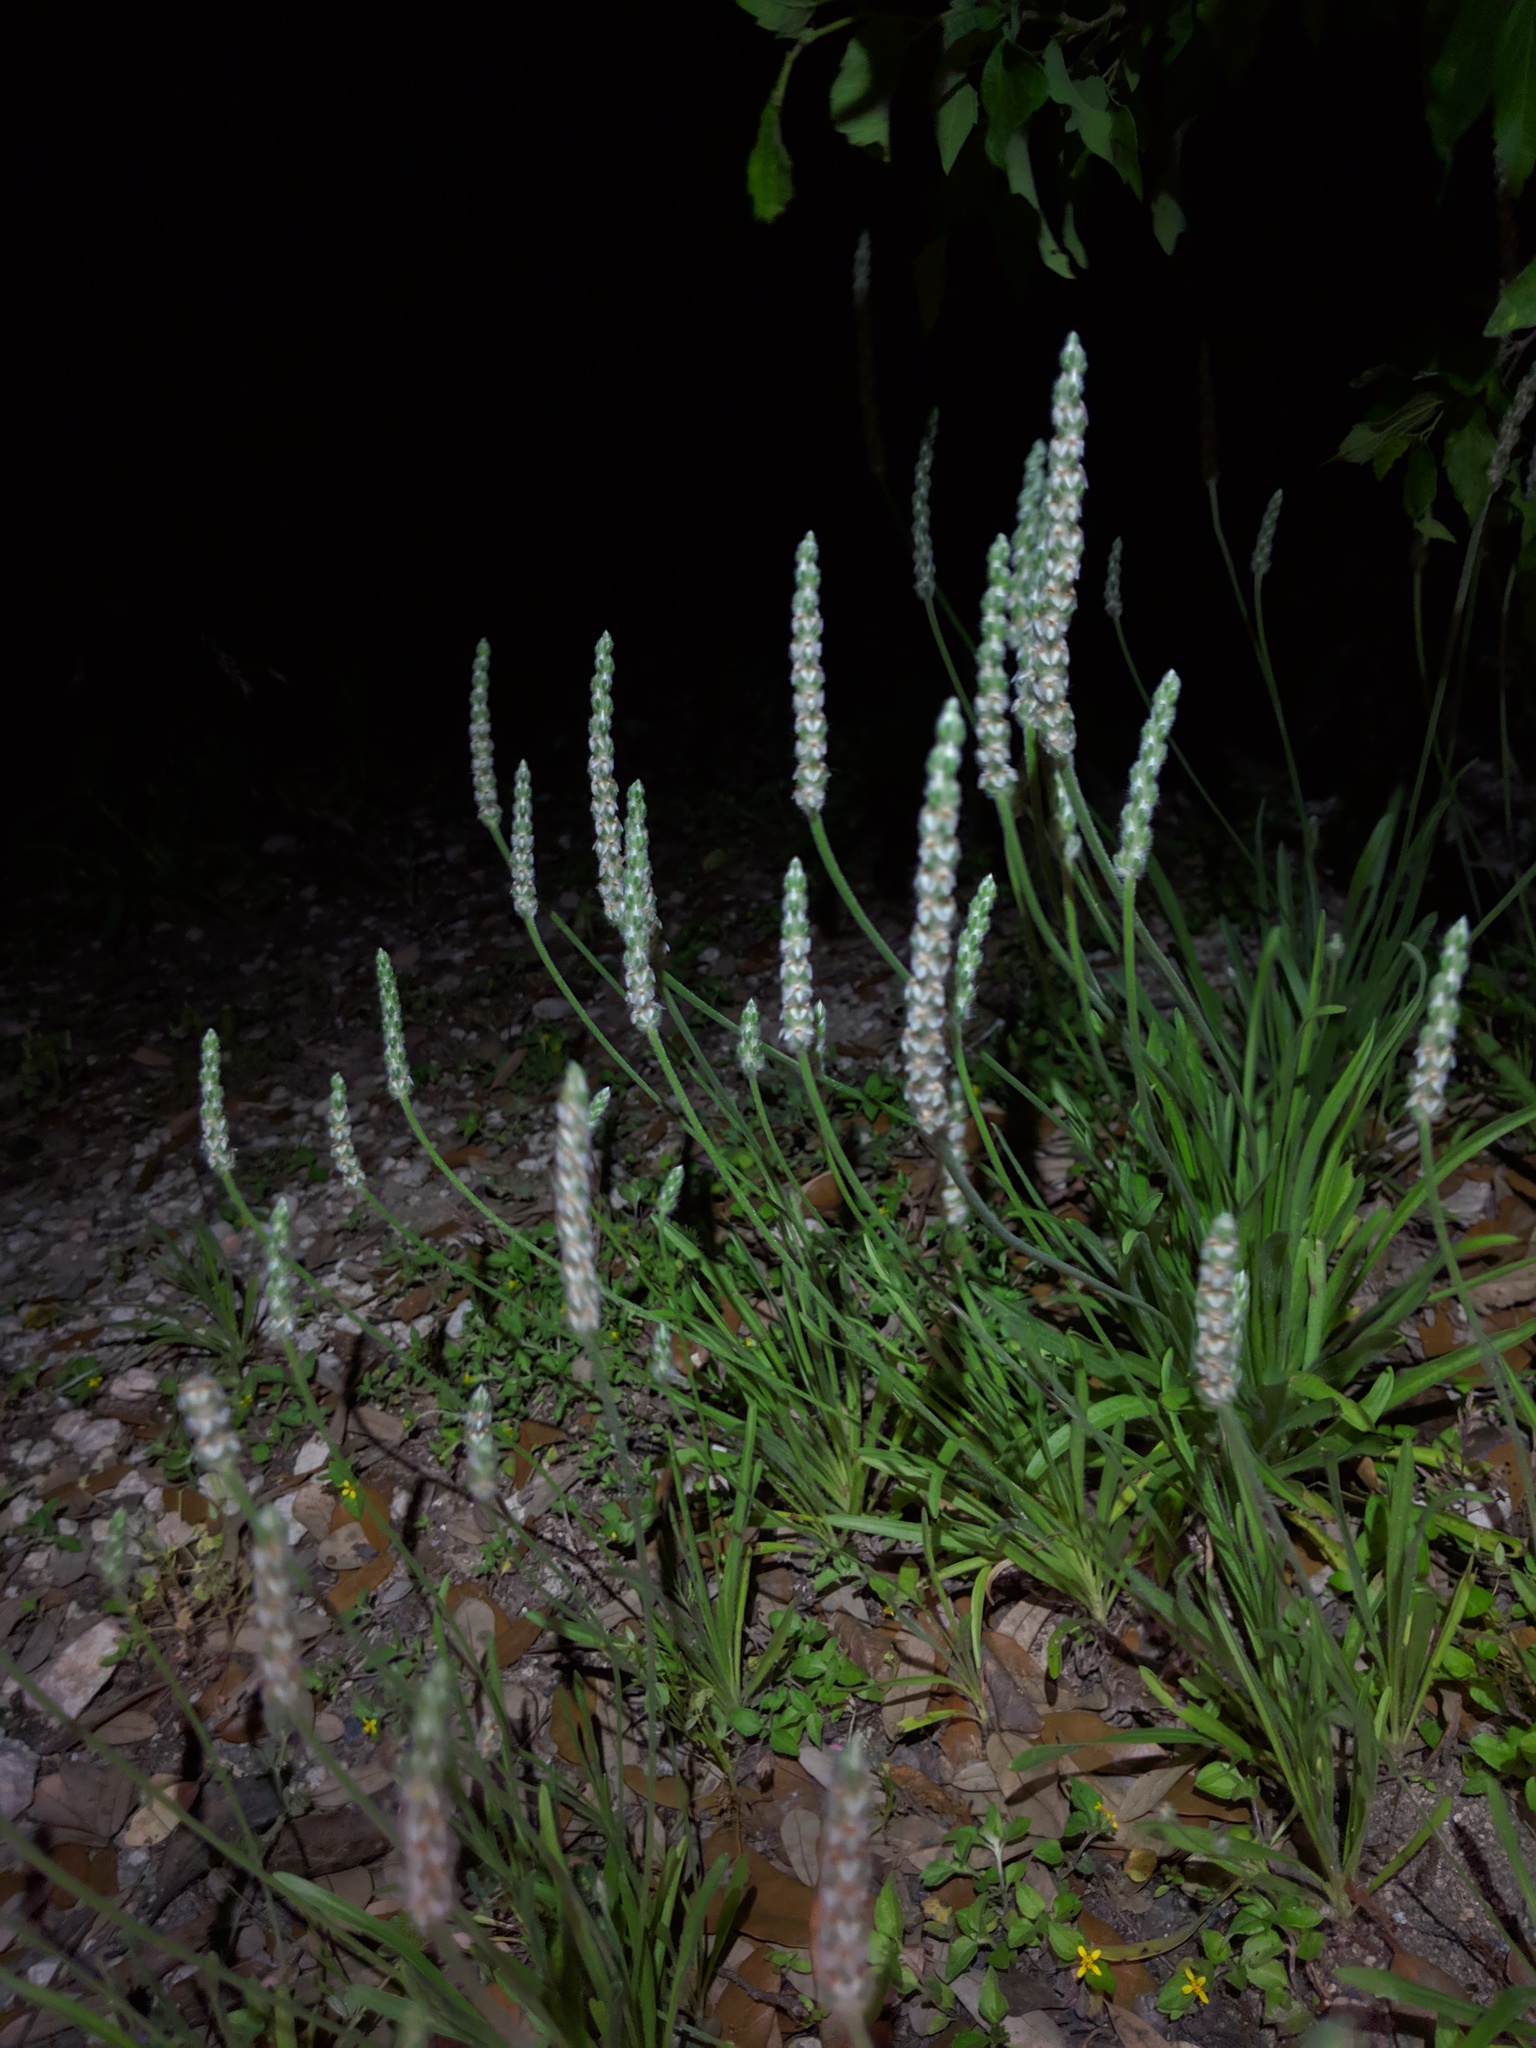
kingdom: Plantae
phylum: Tracheophyta
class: Magnoliopsida
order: Lamiales
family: Plantaginaceae
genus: Plantago
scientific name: Plantago wrightiana
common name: Wright's plantain
